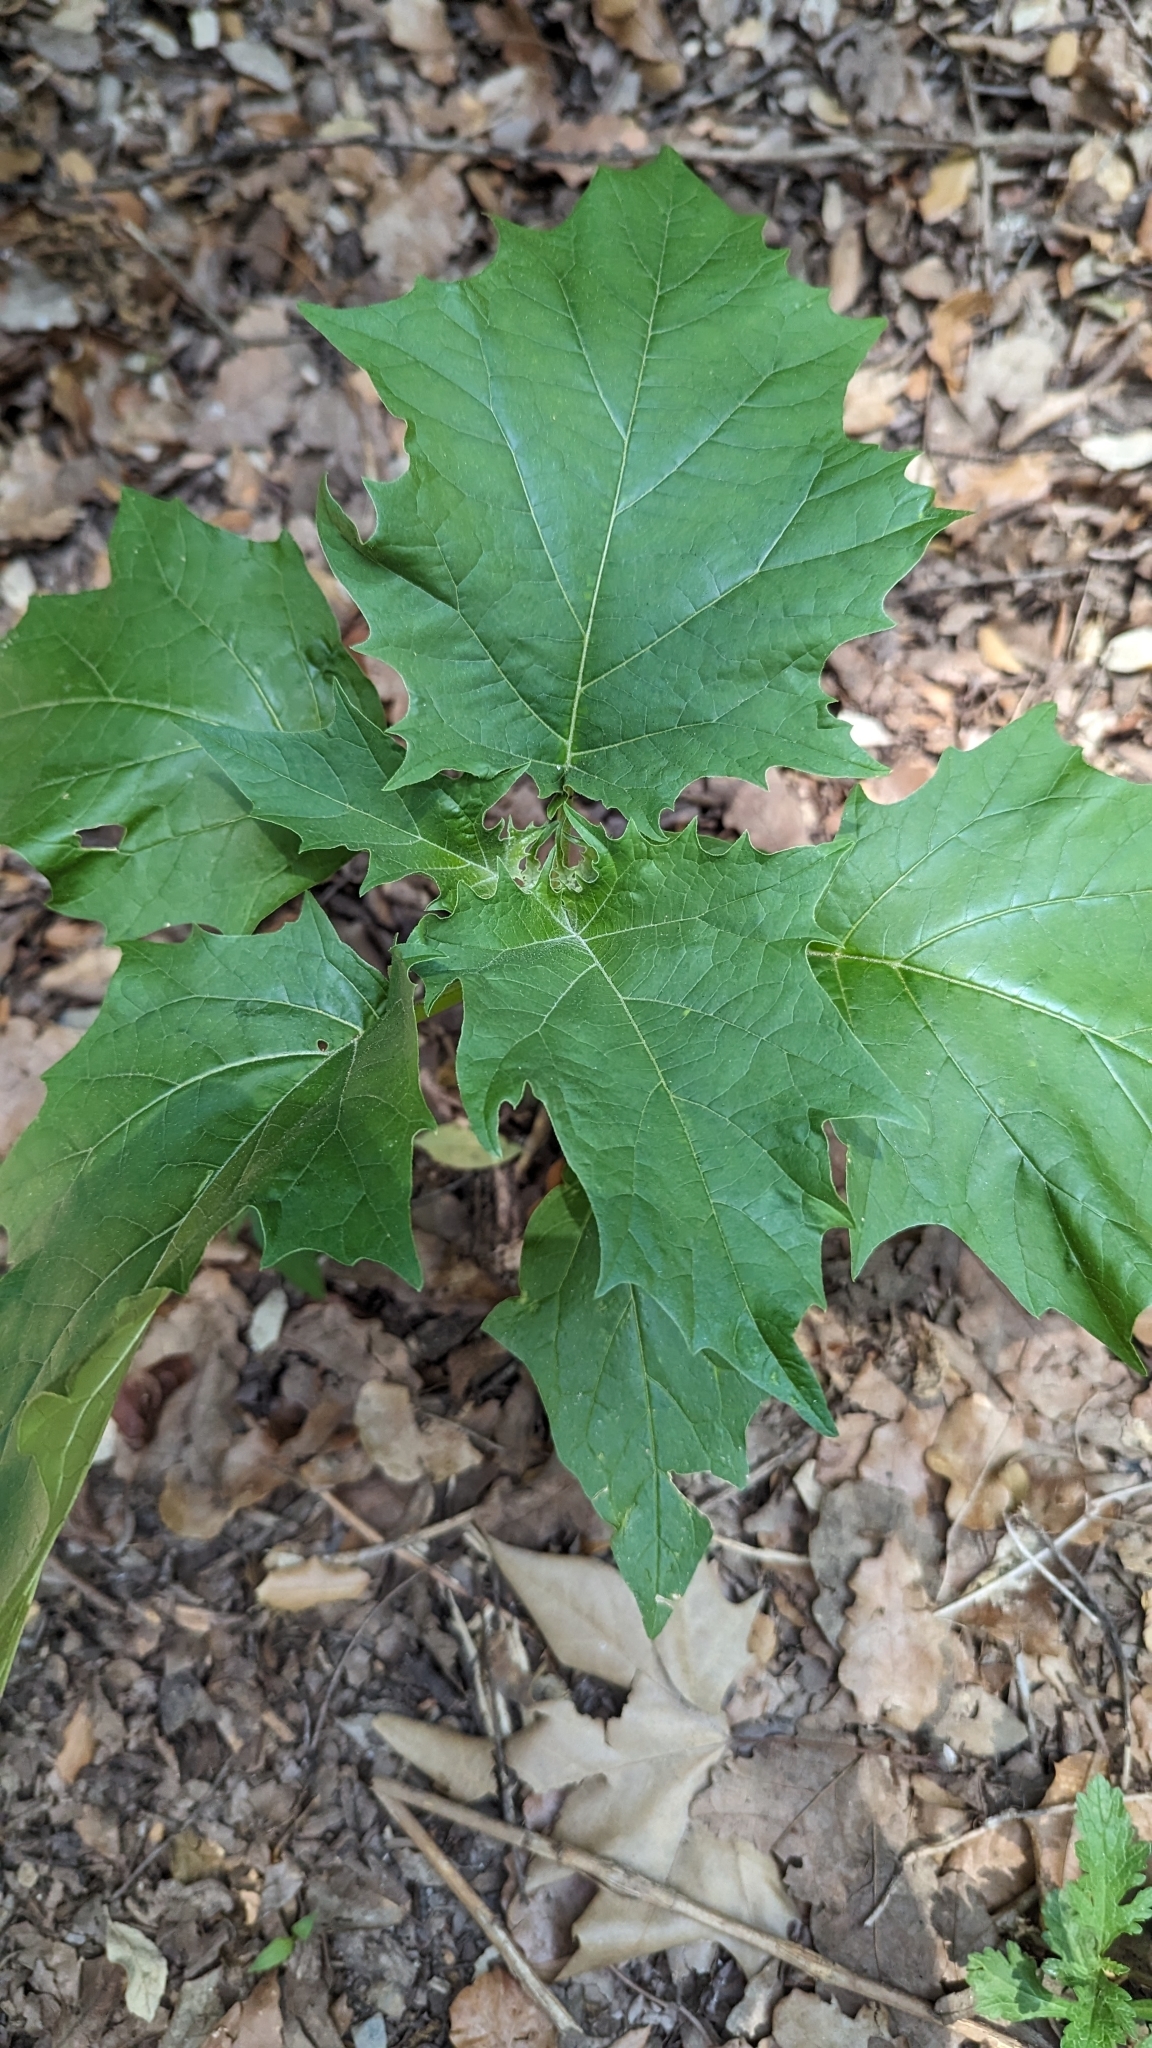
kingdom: Plantae
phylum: Tracheophyta
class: Magnoliopsida
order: Solanales
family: Solanaceae
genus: Datura
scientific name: Datura stramonium
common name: Thorn-apple
